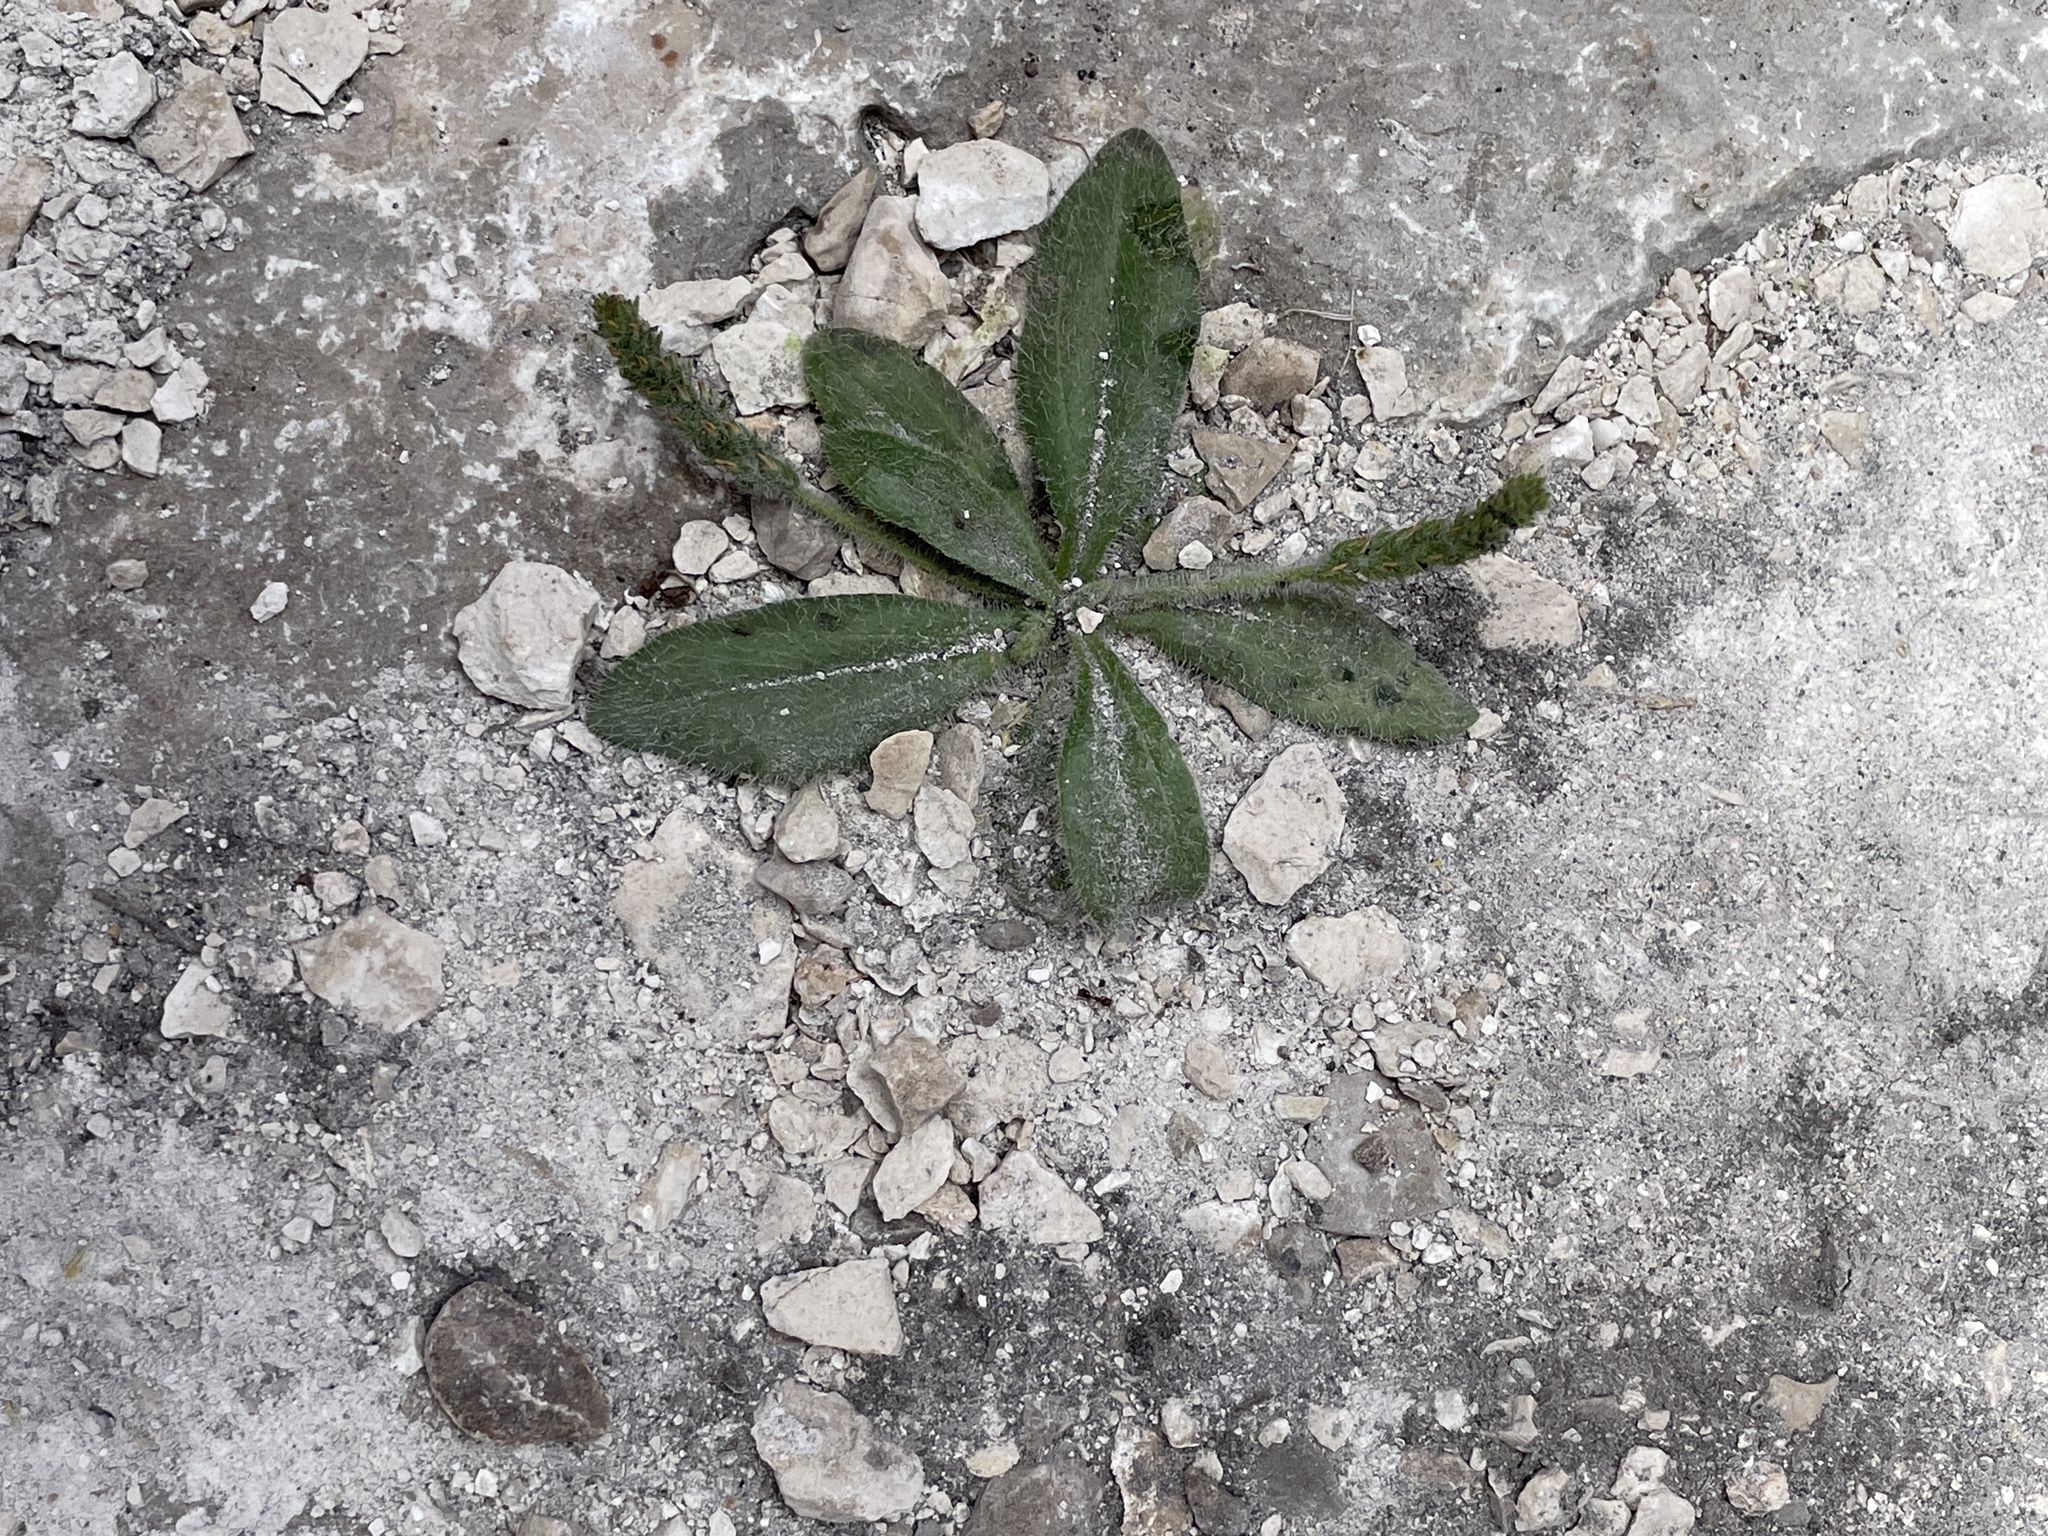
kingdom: Plantae
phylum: Tracheophyta
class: Magnoliopsida
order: Lamiales
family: Plantaginaceae
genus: Plantago
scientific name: Plantago rhodosperma
